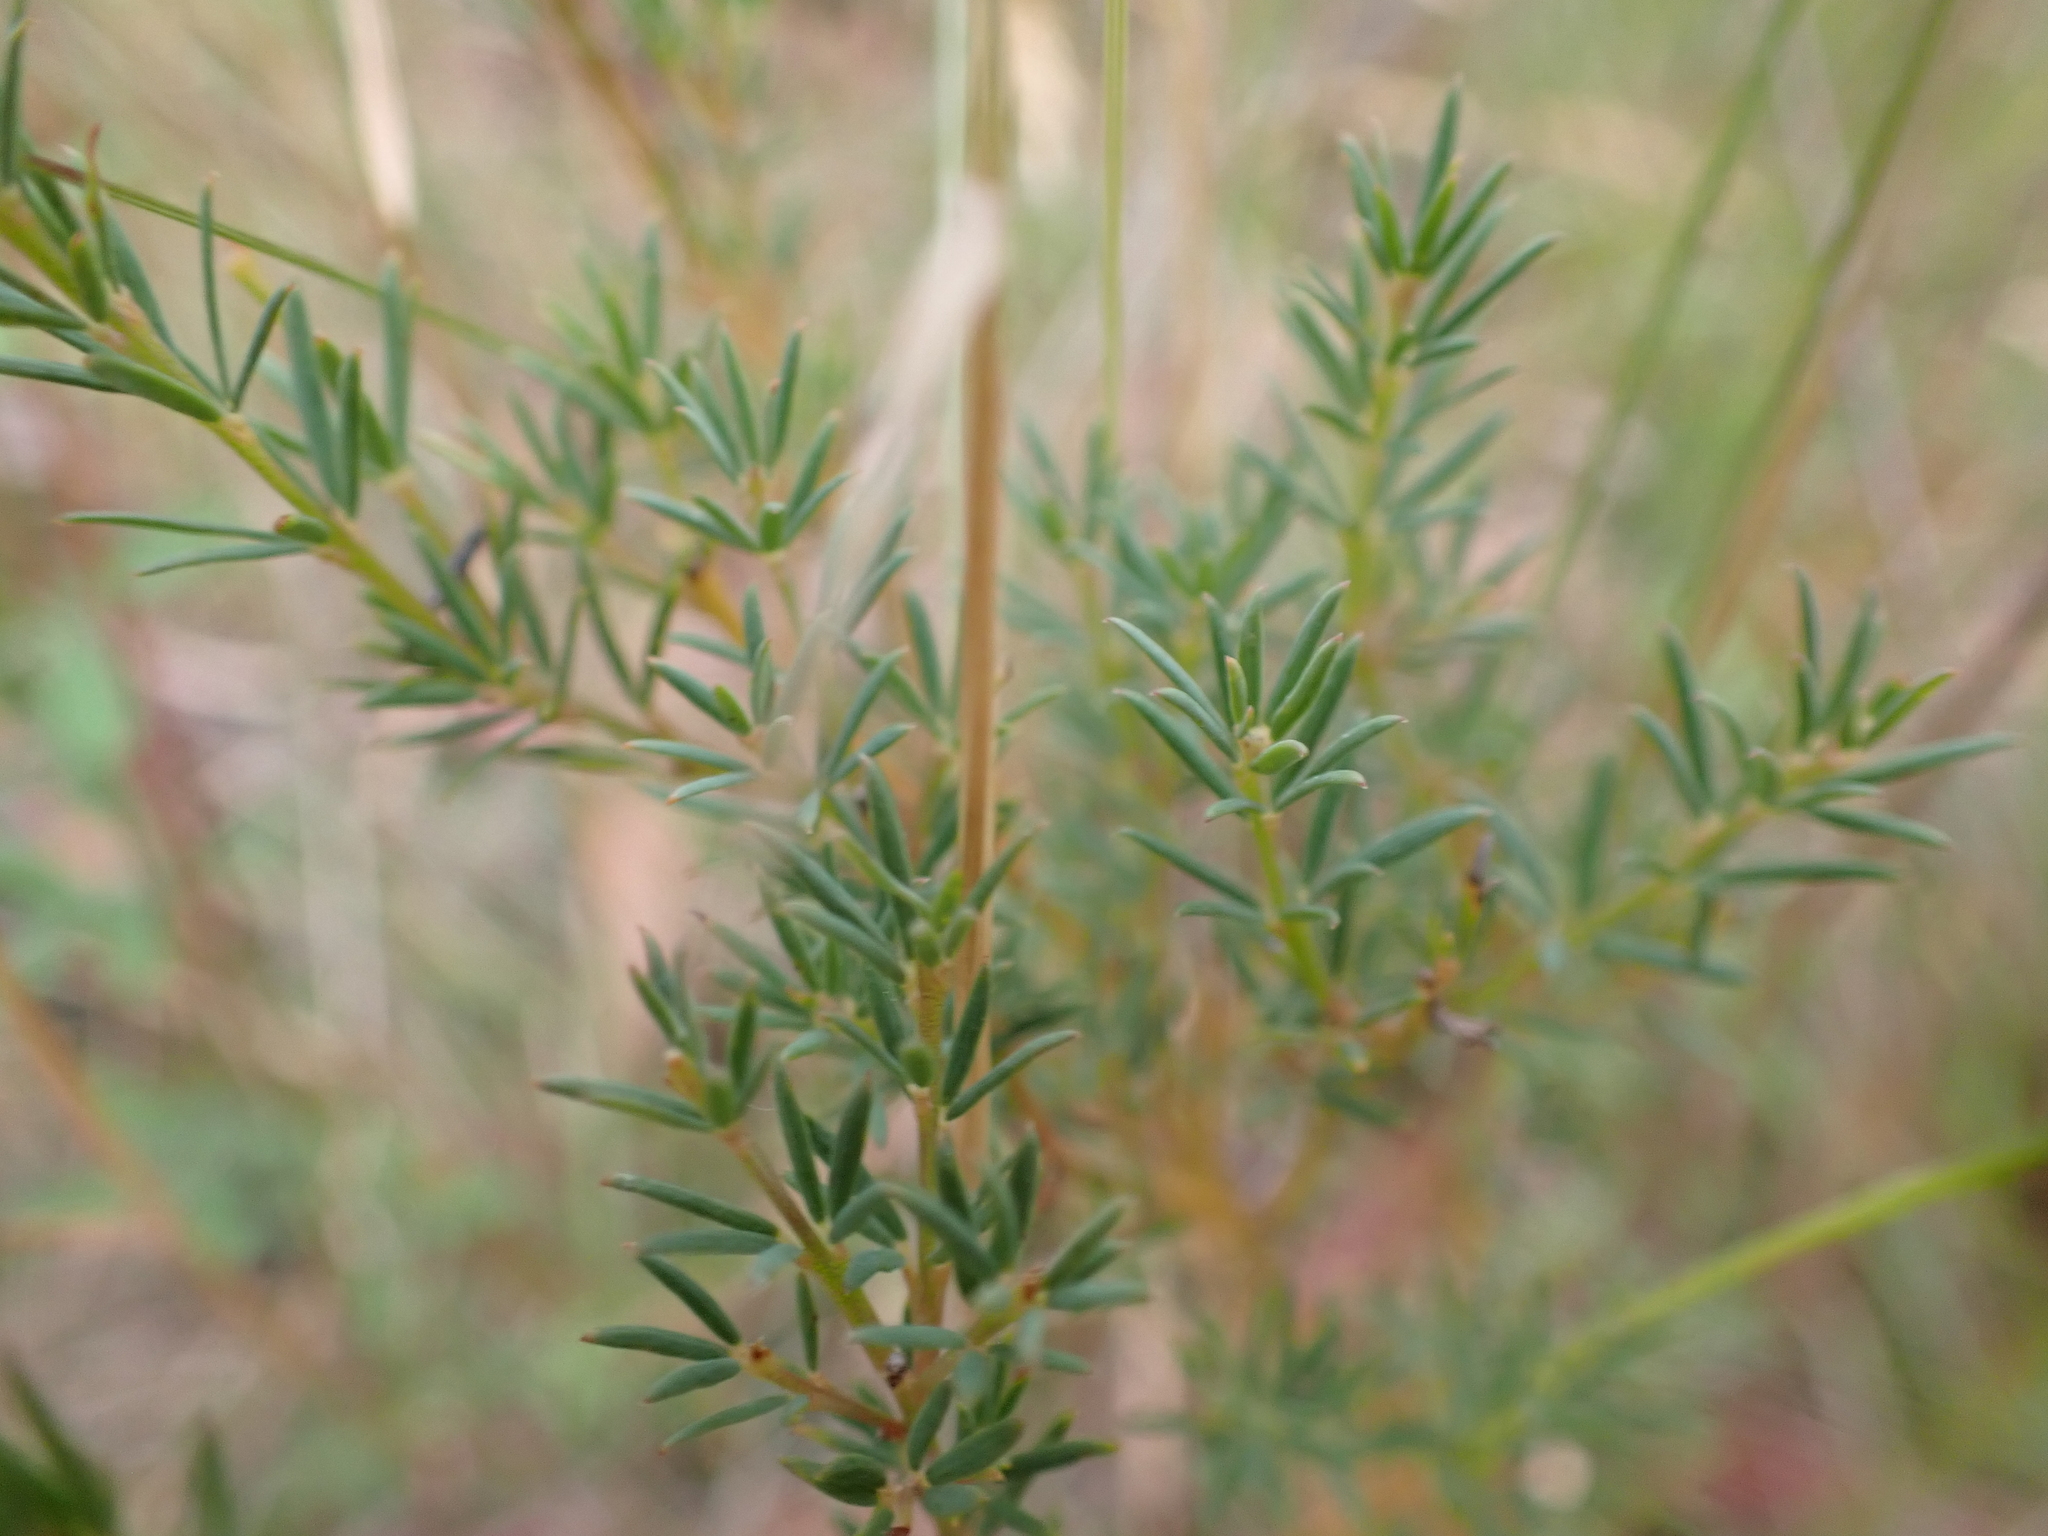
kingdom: Plantae
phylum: Tracheophyta
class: Magnoliopsida
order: Fabales
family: Fabaceae
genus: Gompholobium
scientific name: Gompholobium huegelii
